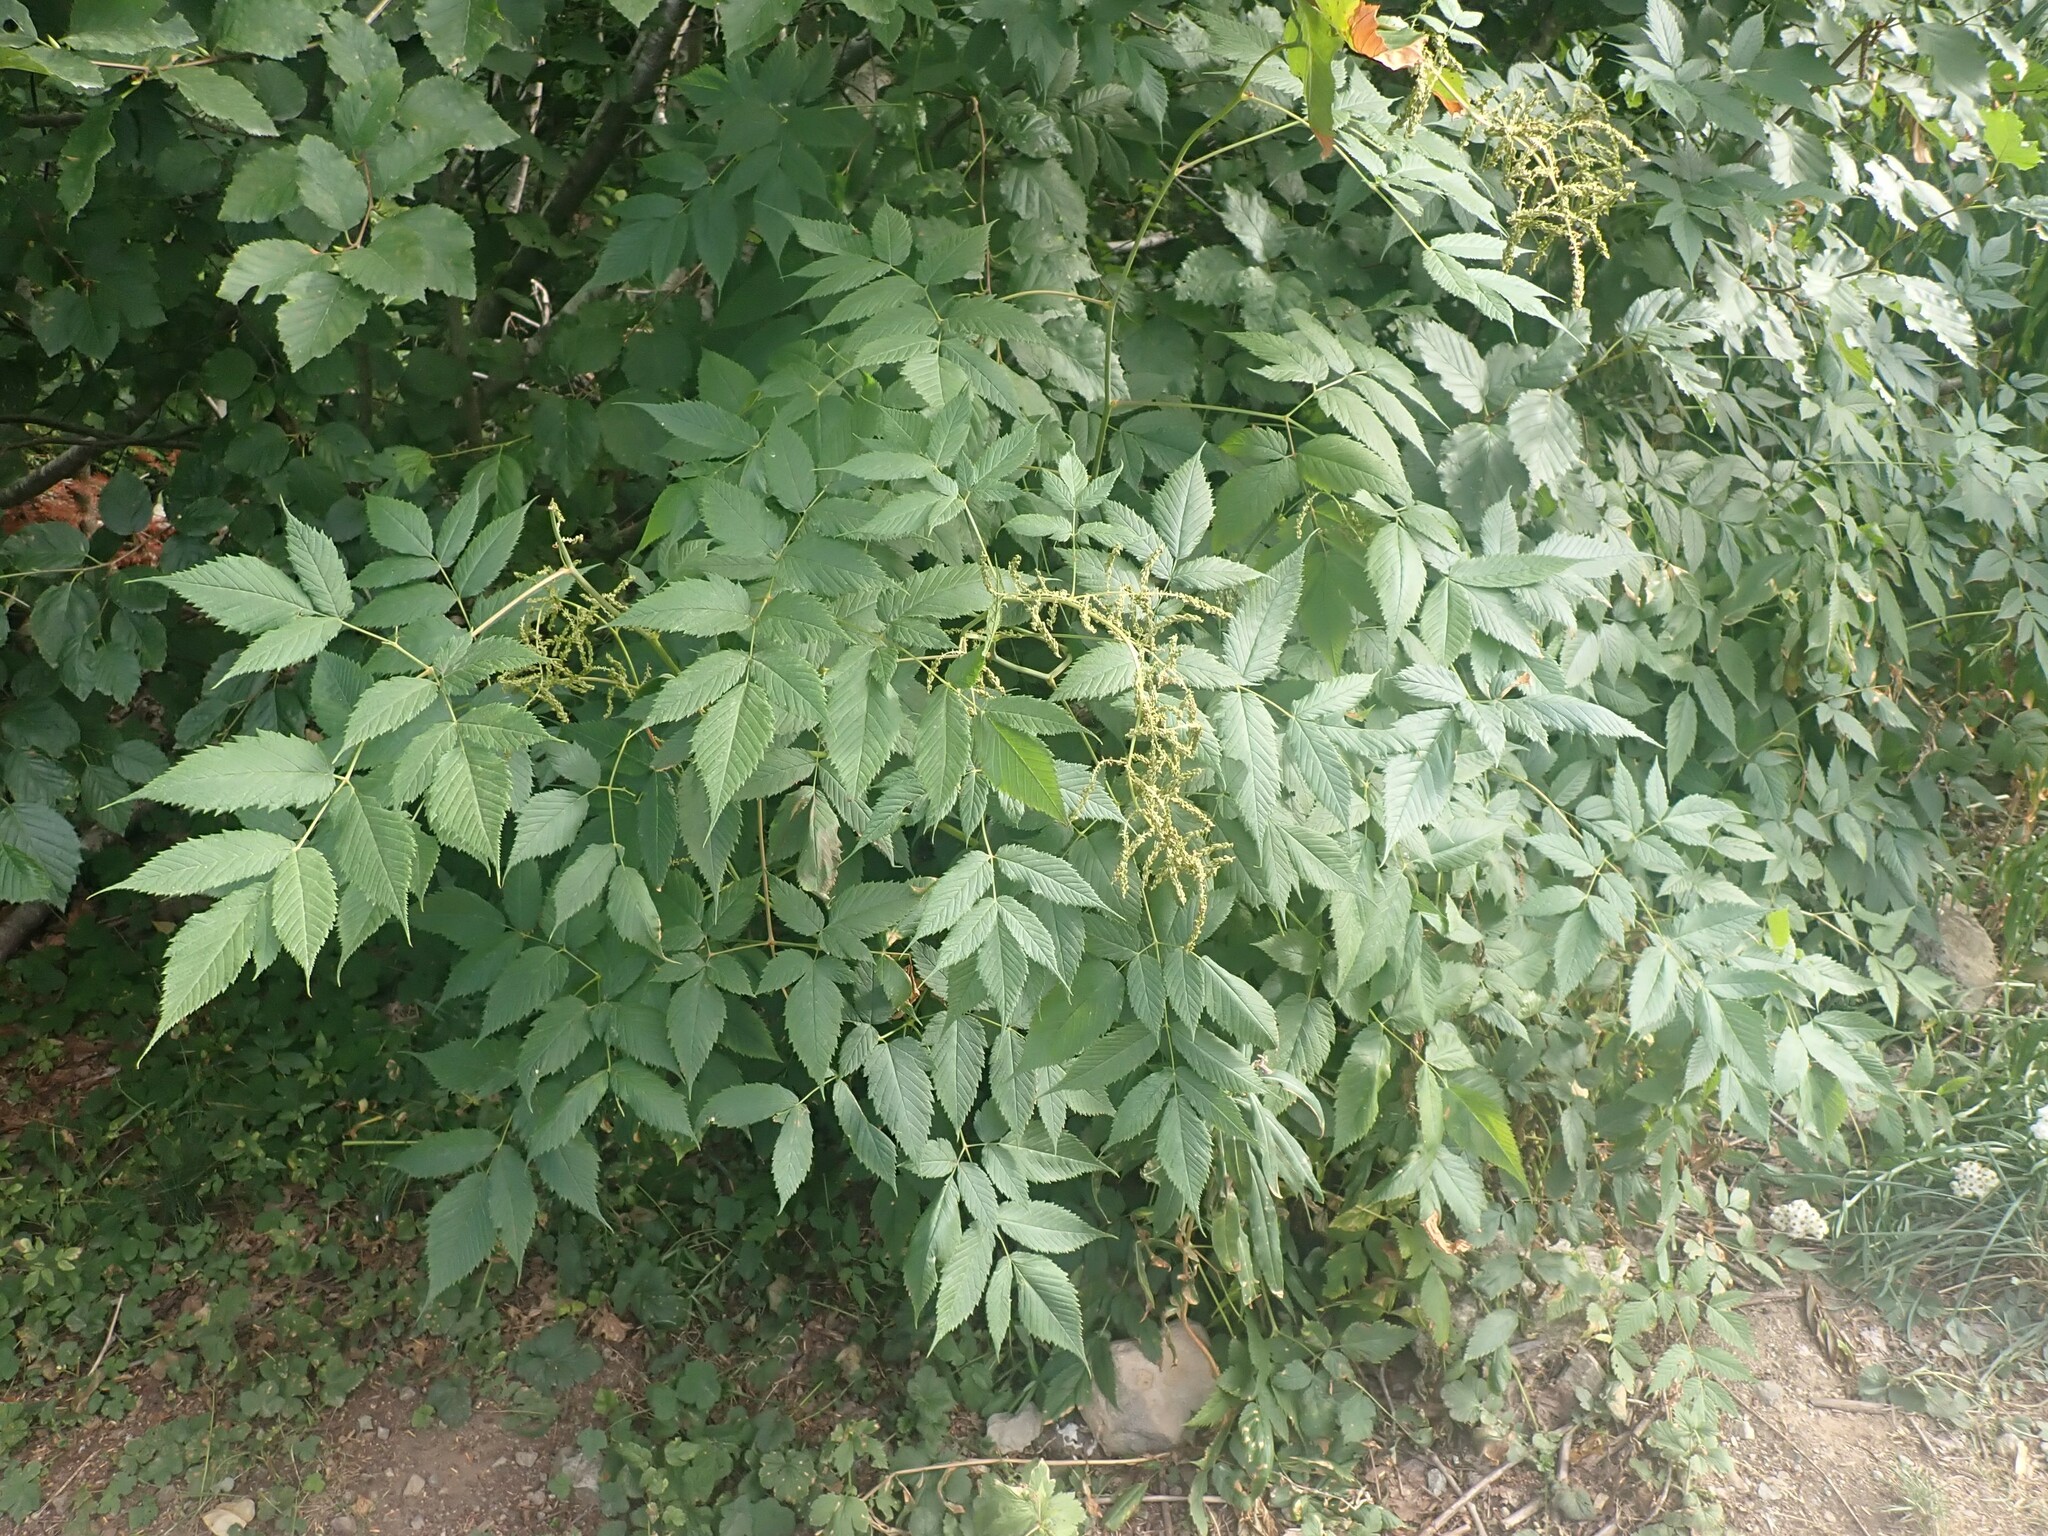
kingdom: Plantae
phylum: Tracheophyta
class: Magnoliopsida
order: Rosales
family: Rosaceae
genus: Aruncus
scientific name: Aruncus dioicus
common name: Buck's-beard
